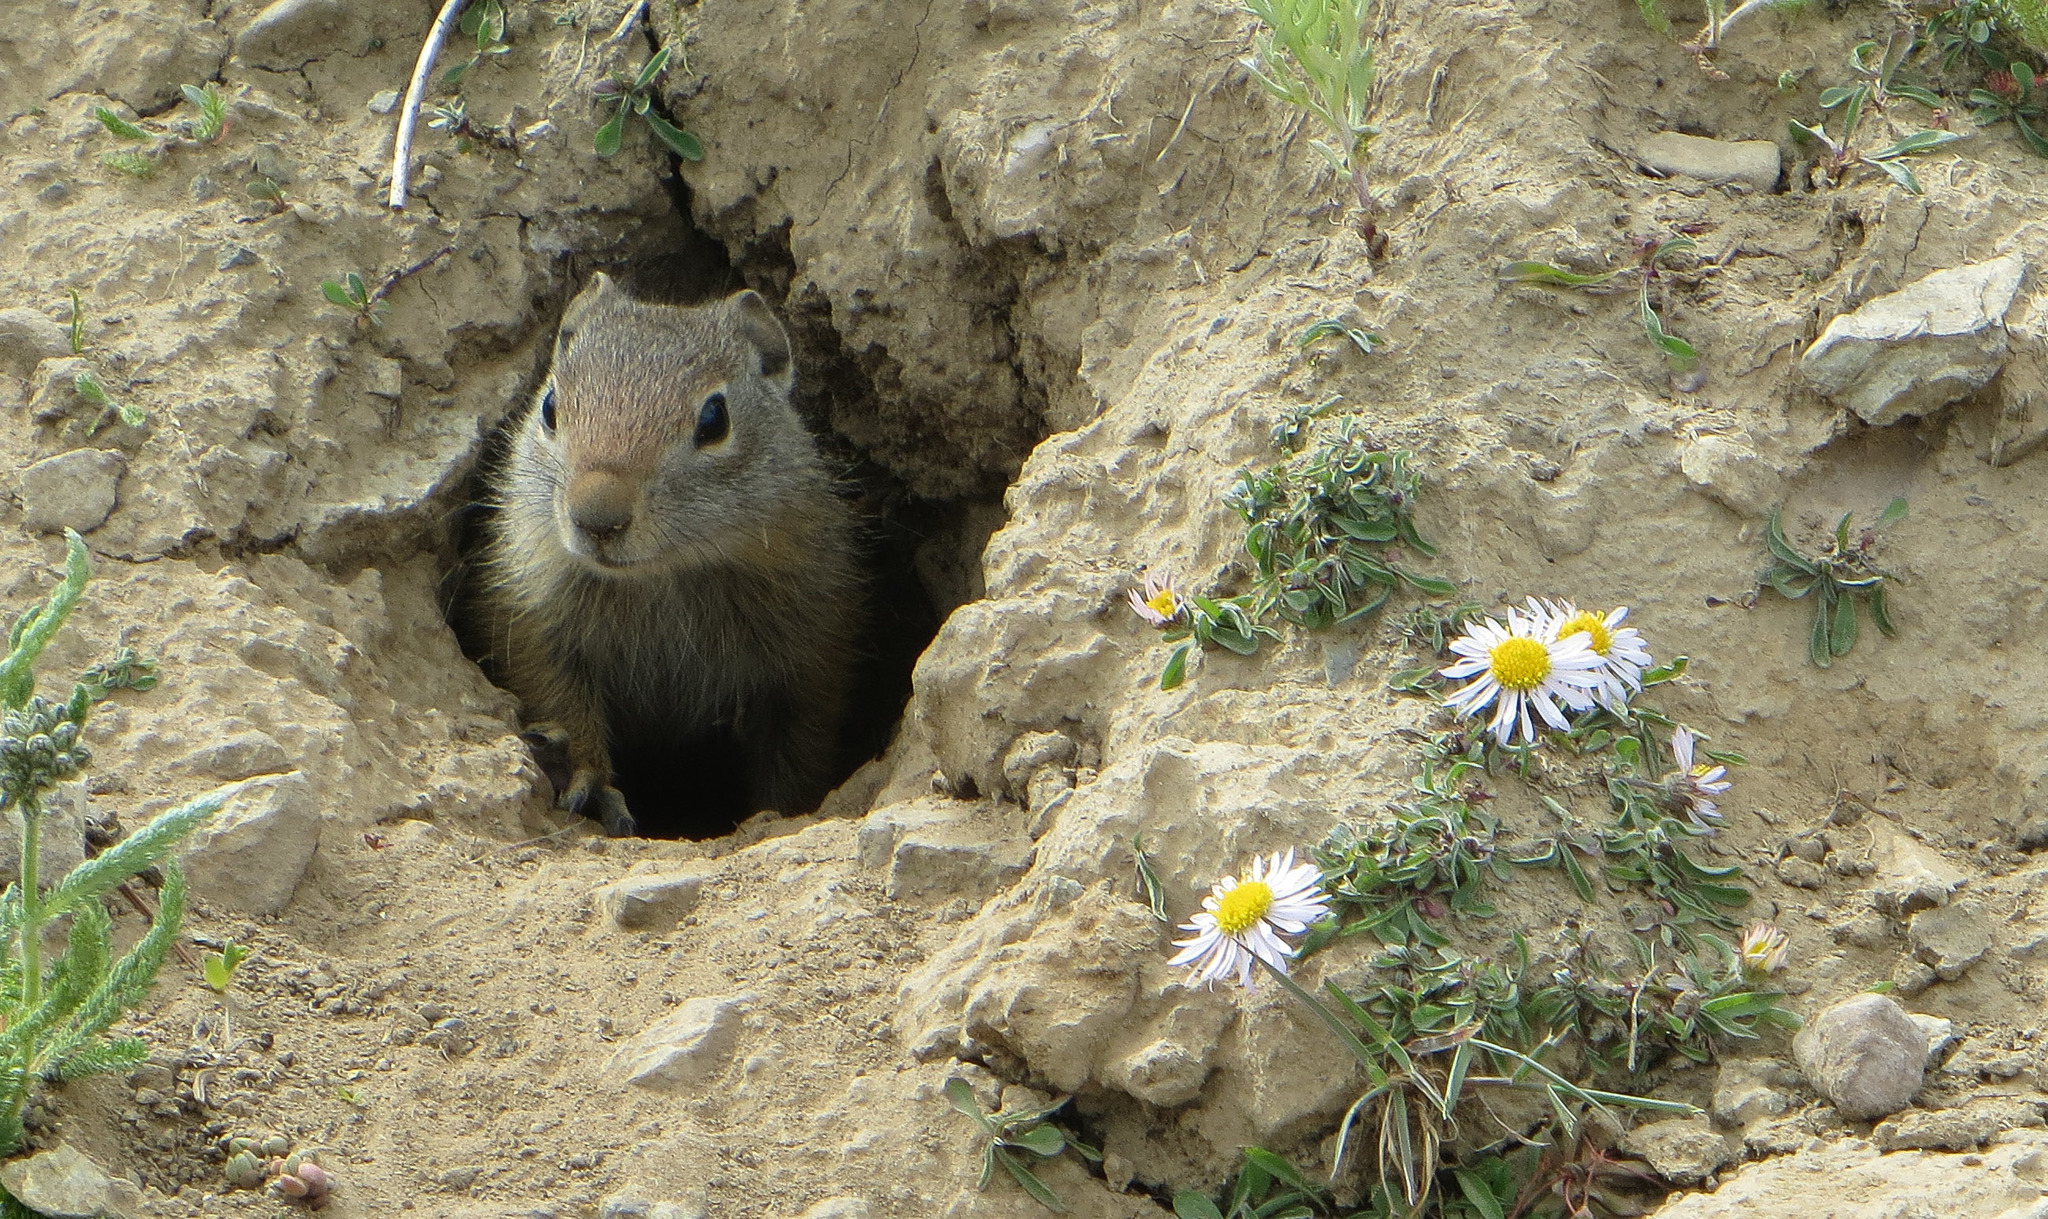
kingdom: Animalia
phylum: Chordata
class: Mammalia
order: Rodentia
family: Sciuridae
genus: Urocitellus
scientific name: Urocitellus armatus
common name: Uinta ground squirrel
